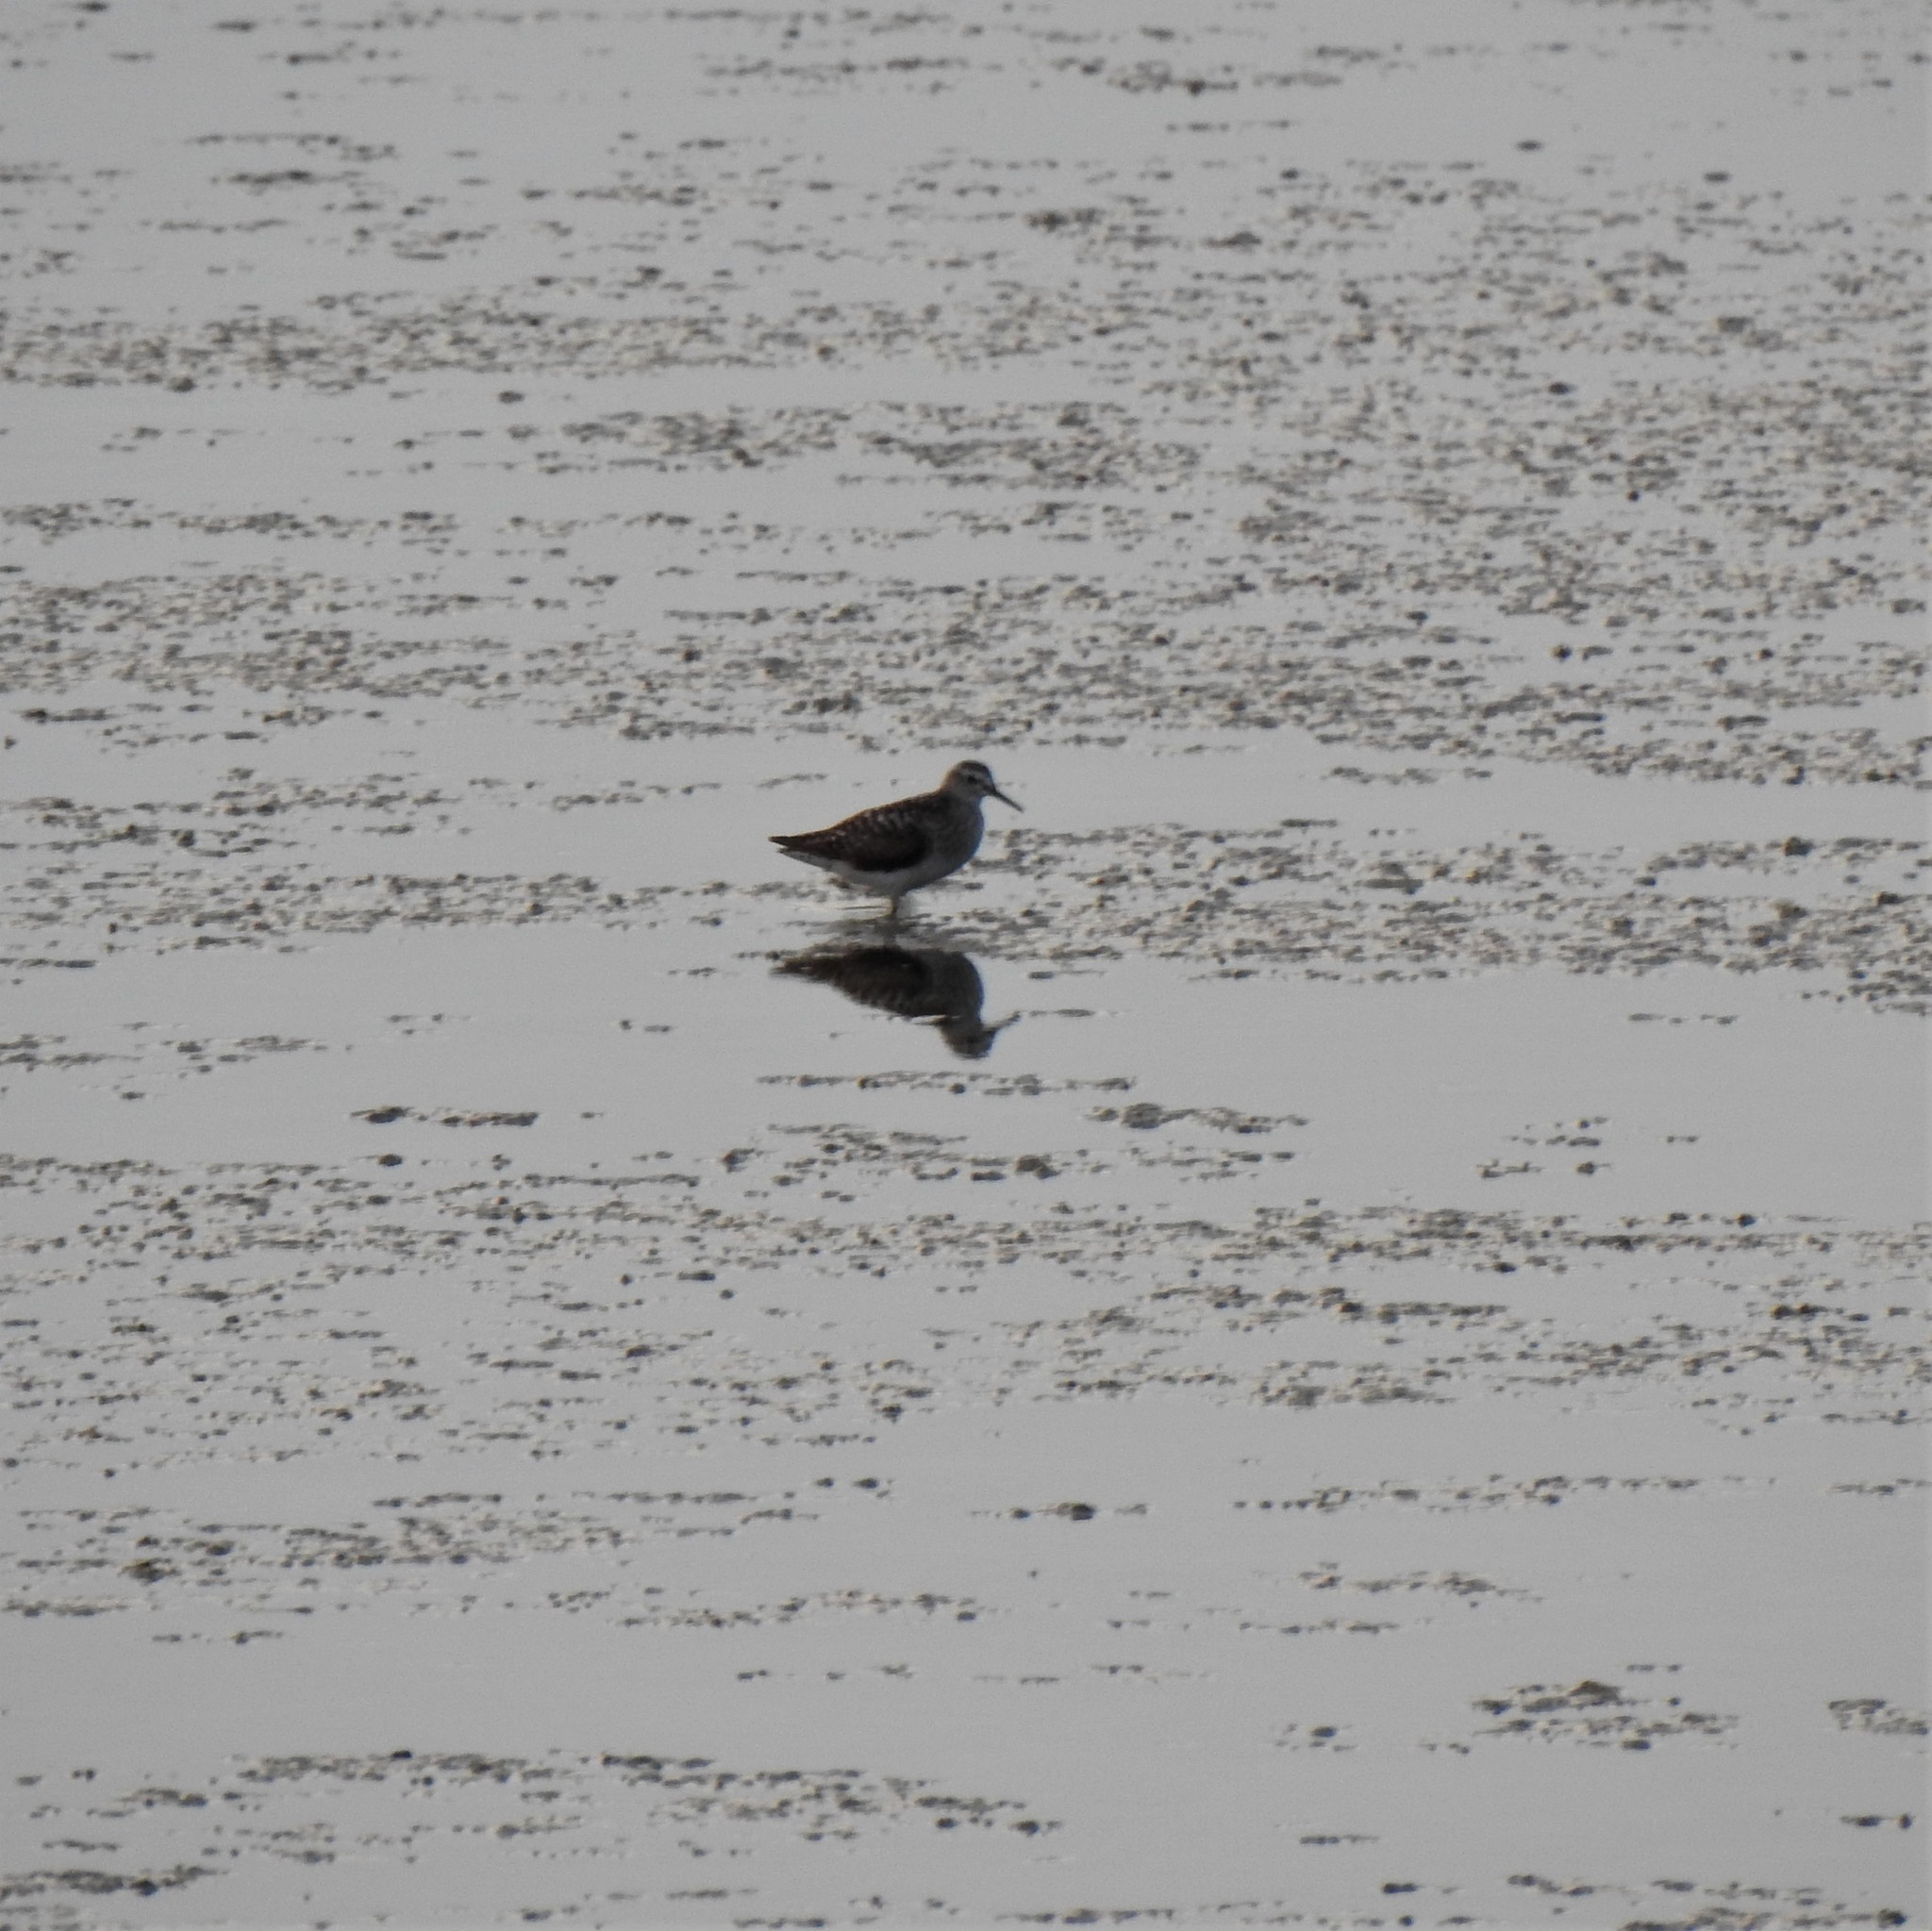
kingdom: Animalia
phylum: Chordata
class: Aves
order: Charadriiformes
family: Scolopacidae
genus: Tringa
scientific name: Tringa glareola
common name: Wood sandpiper
